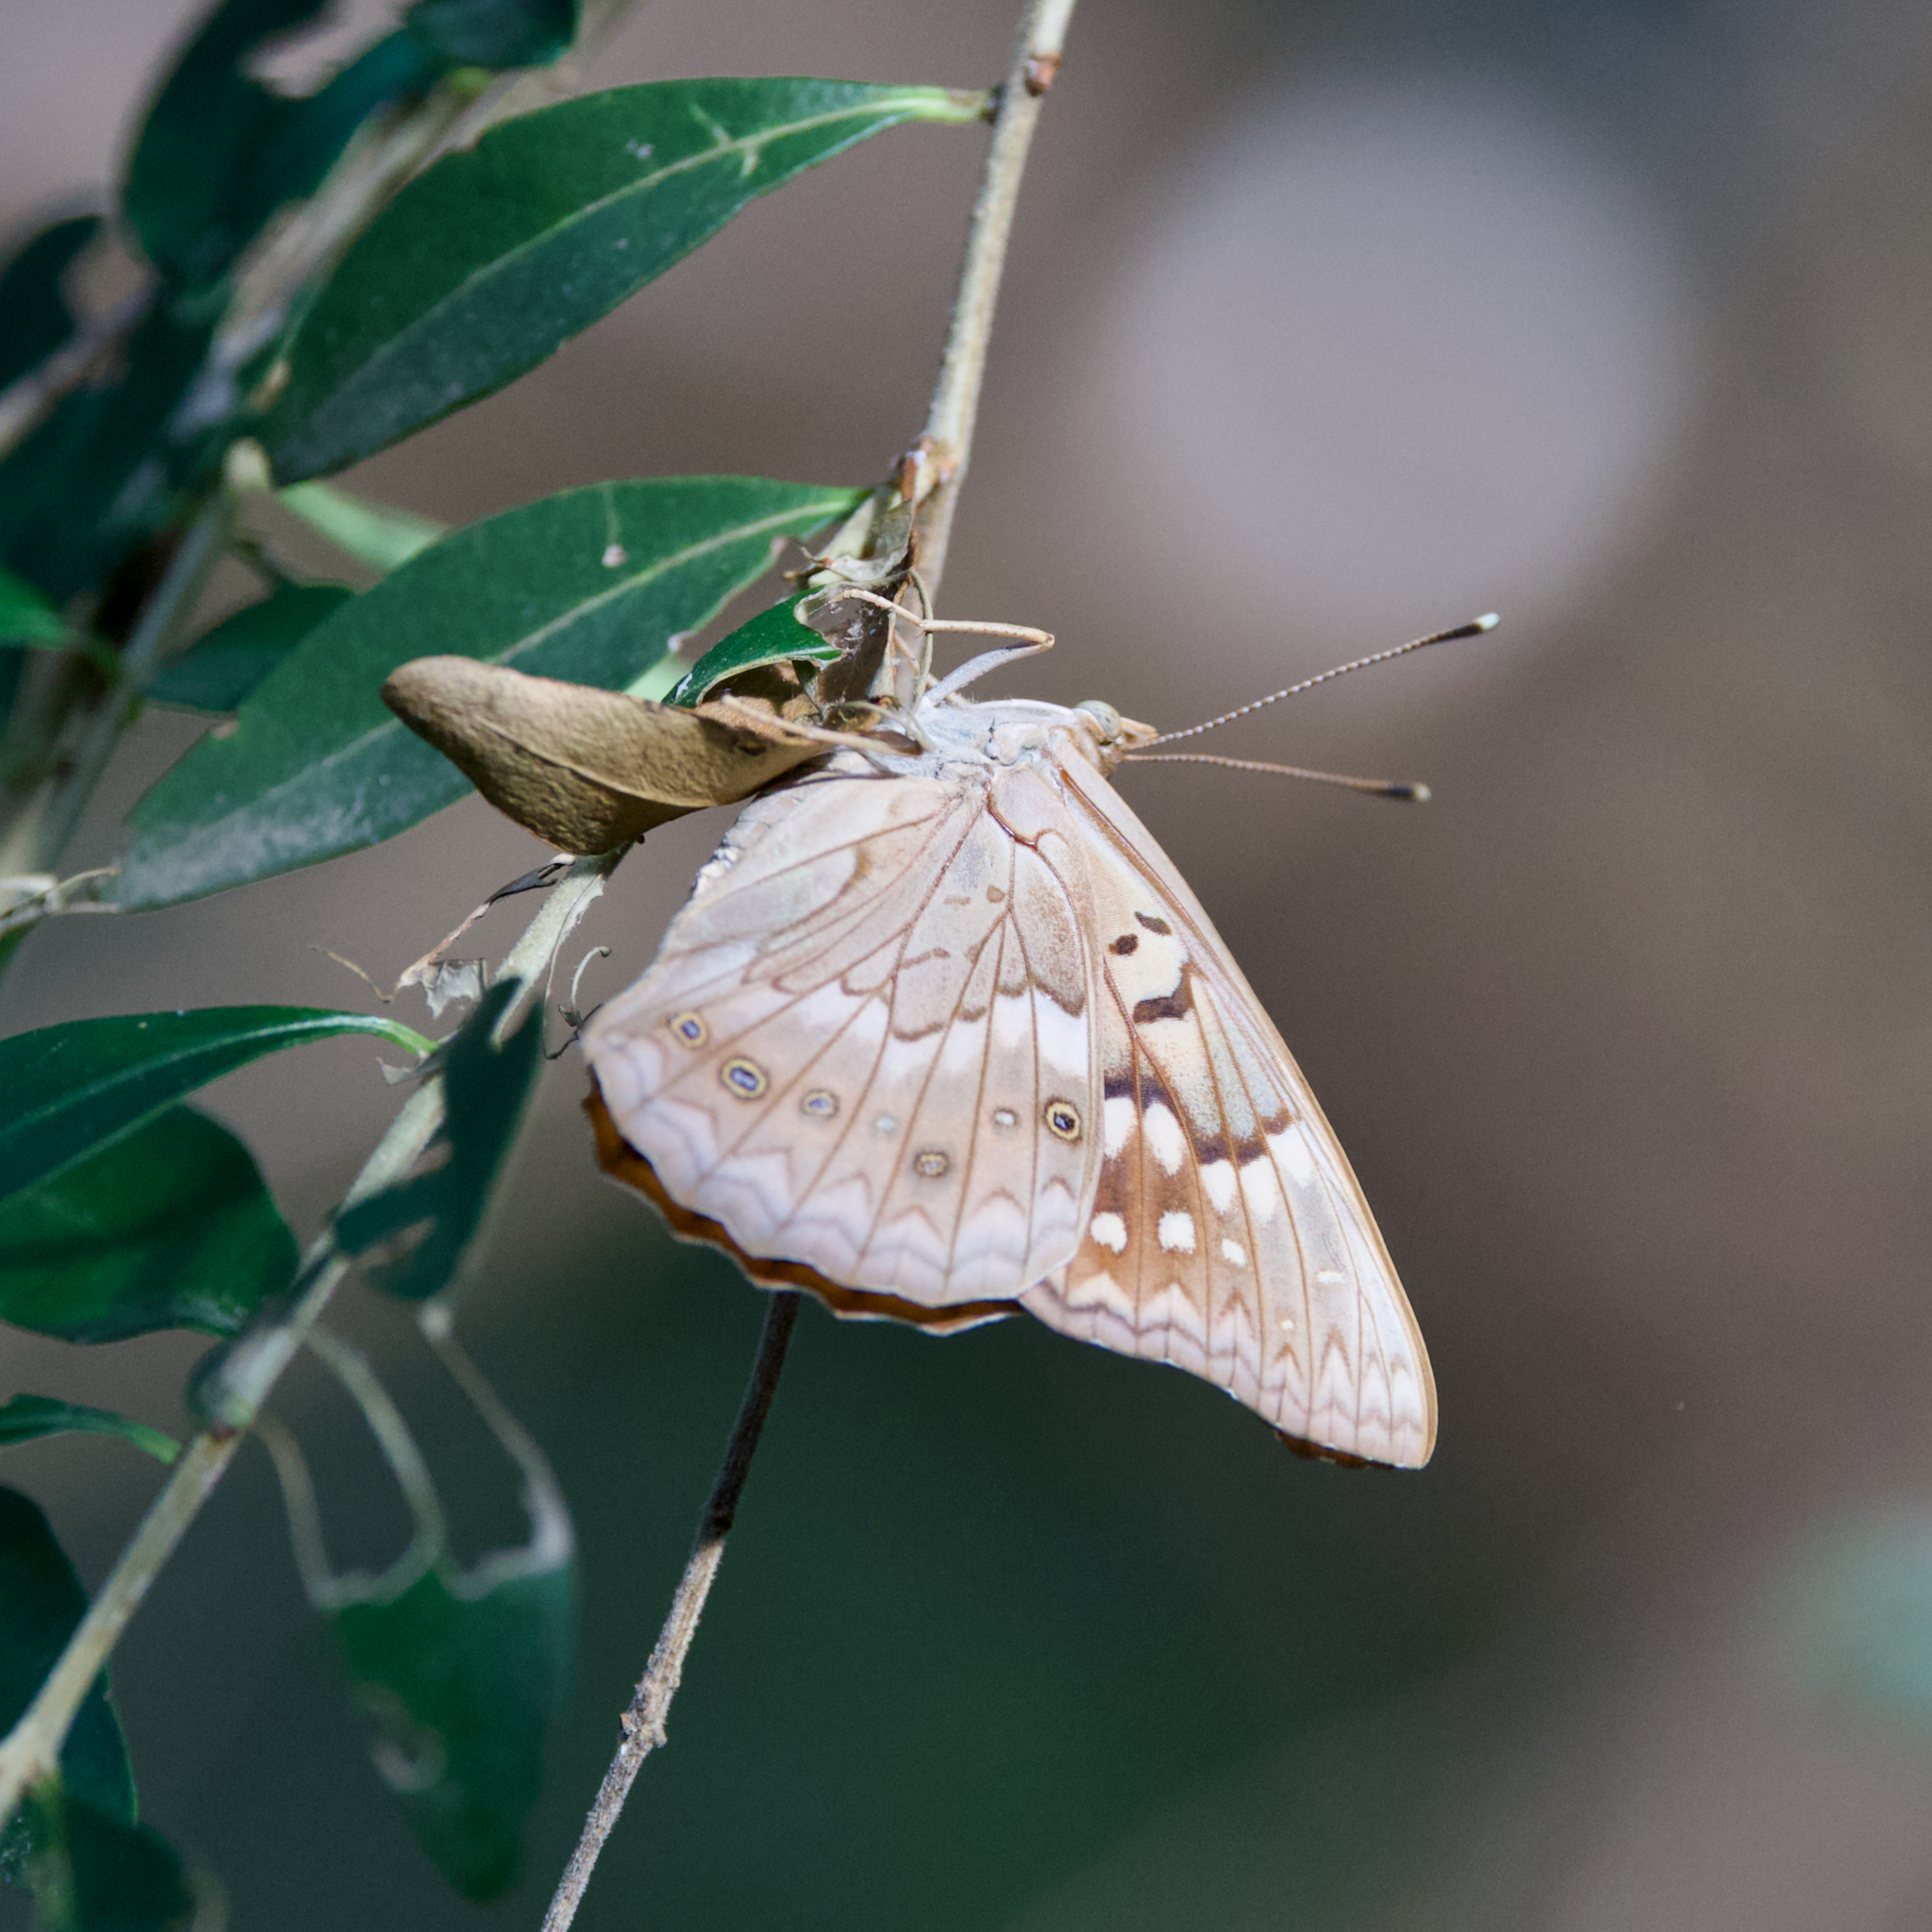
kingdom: Animalia
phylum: Arthropoda
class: Insecta
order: Lepidoptera
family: Nymphalidae
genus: Asterocampa
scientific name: Asterocampa clyton
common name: Tawny emperor
